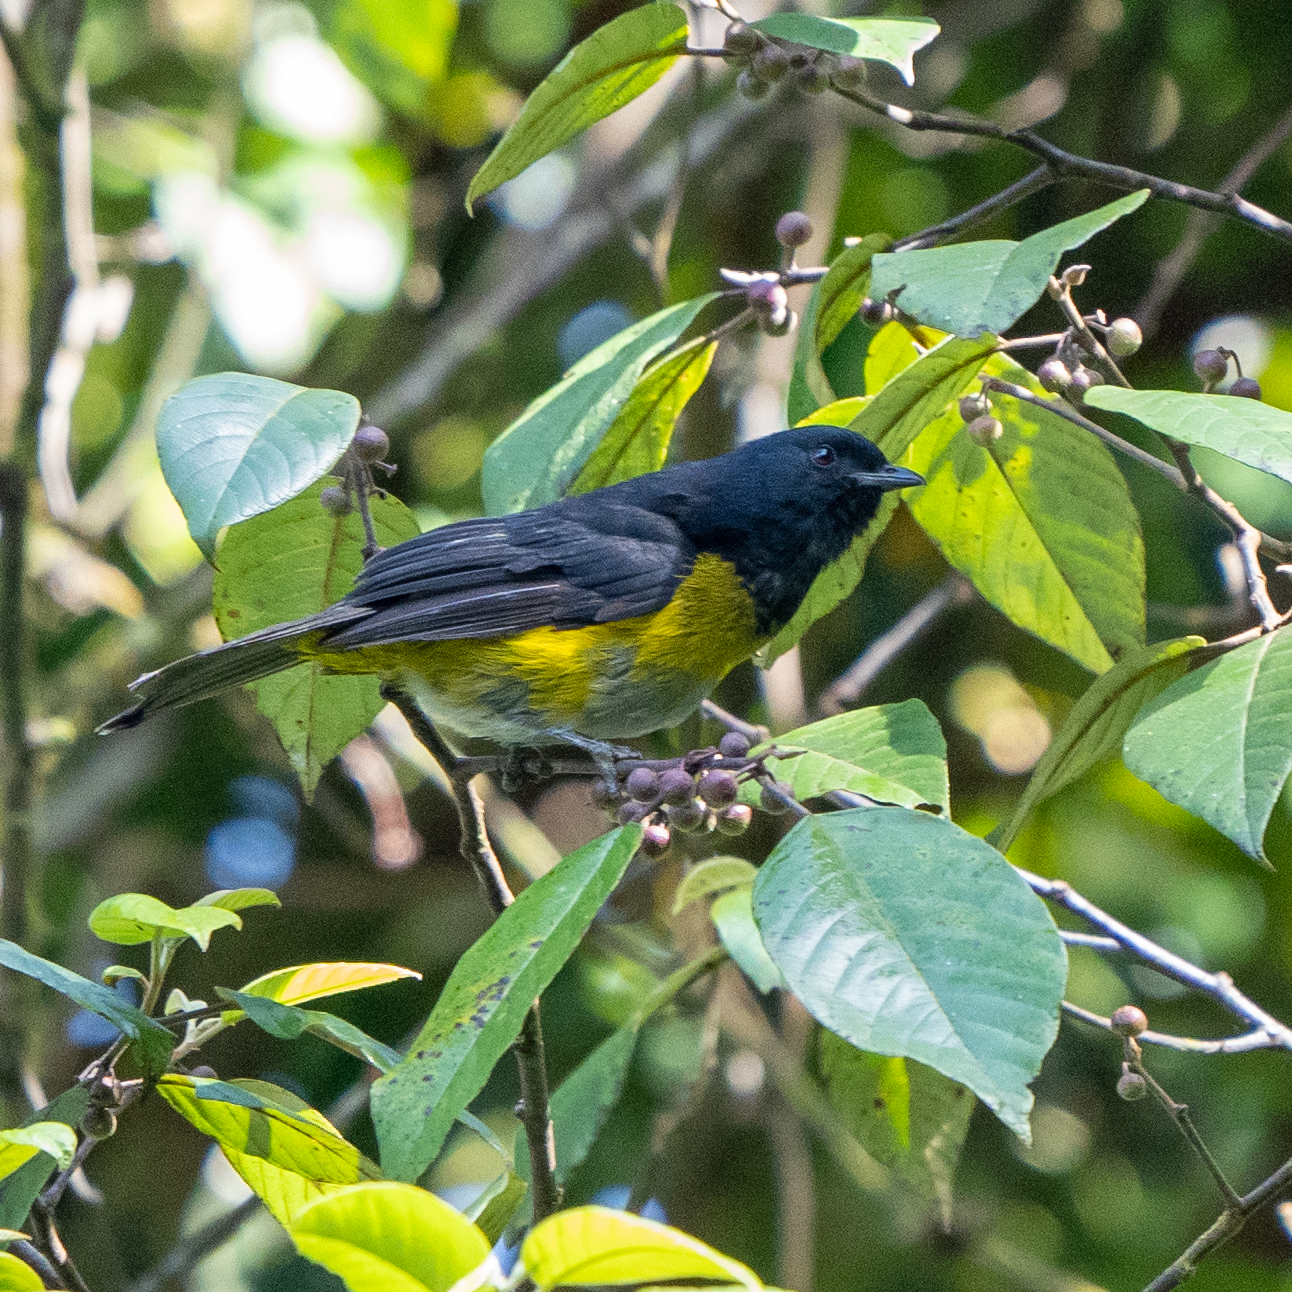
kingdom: Animalia
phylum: Chordata
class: Aves
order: Passeriformes
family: Ptilogonatidae
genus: Phainoptila
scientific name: Phainoptila melanoxantha
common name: Black-and-yellow phainoptila
